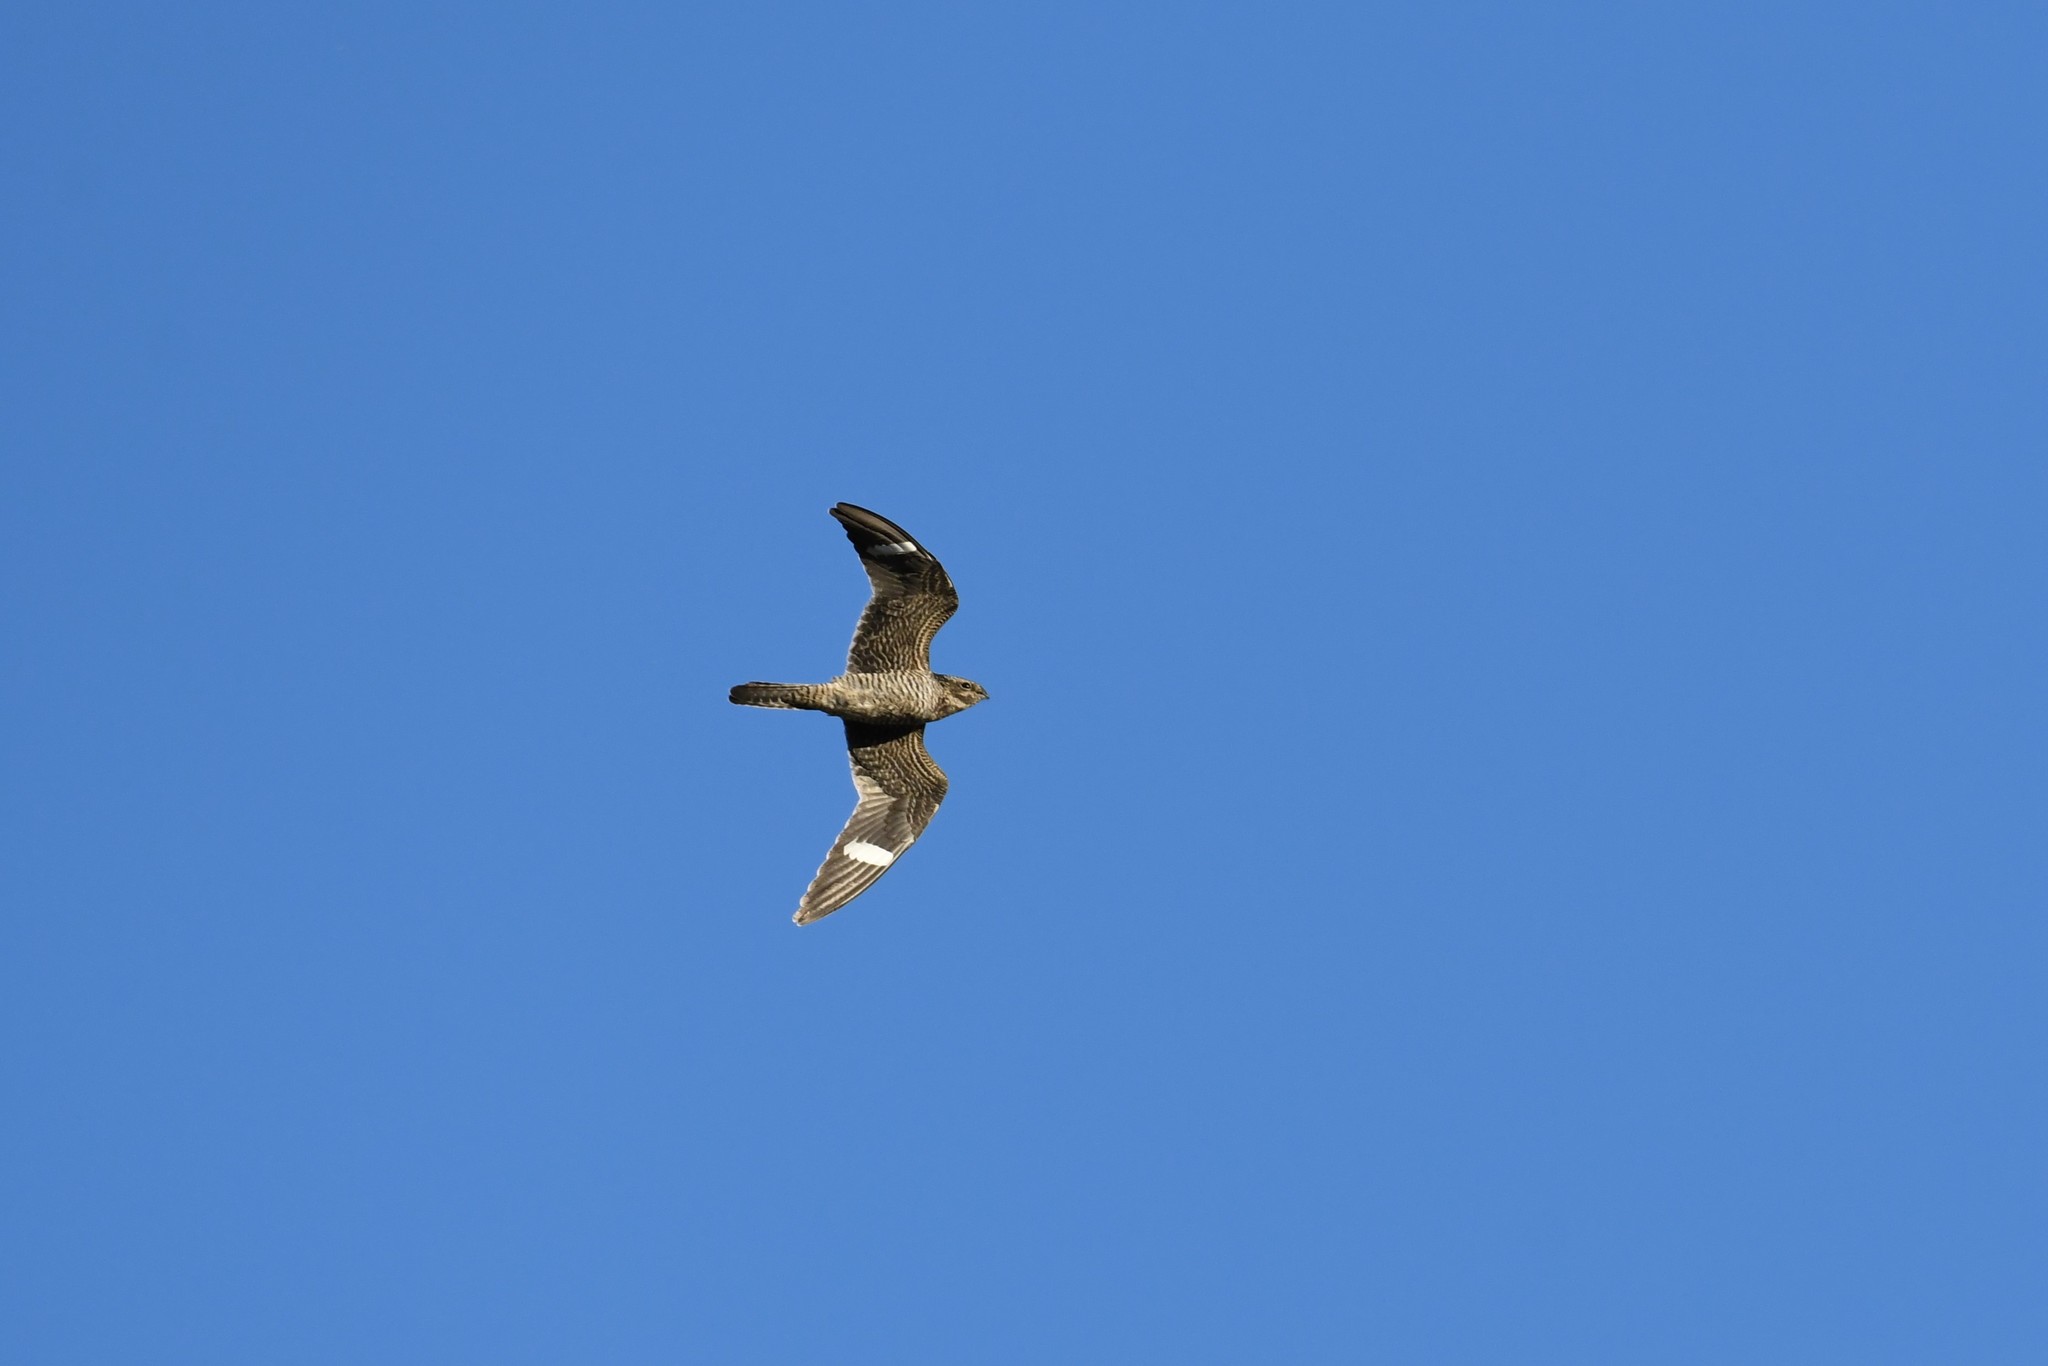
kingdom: Animalia
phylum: Chordata
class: Aves
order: Caprimulgiformes
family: Caprimulgidae
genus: Chordeiles
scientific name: Chordeiles minor
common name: Common nighthawk
